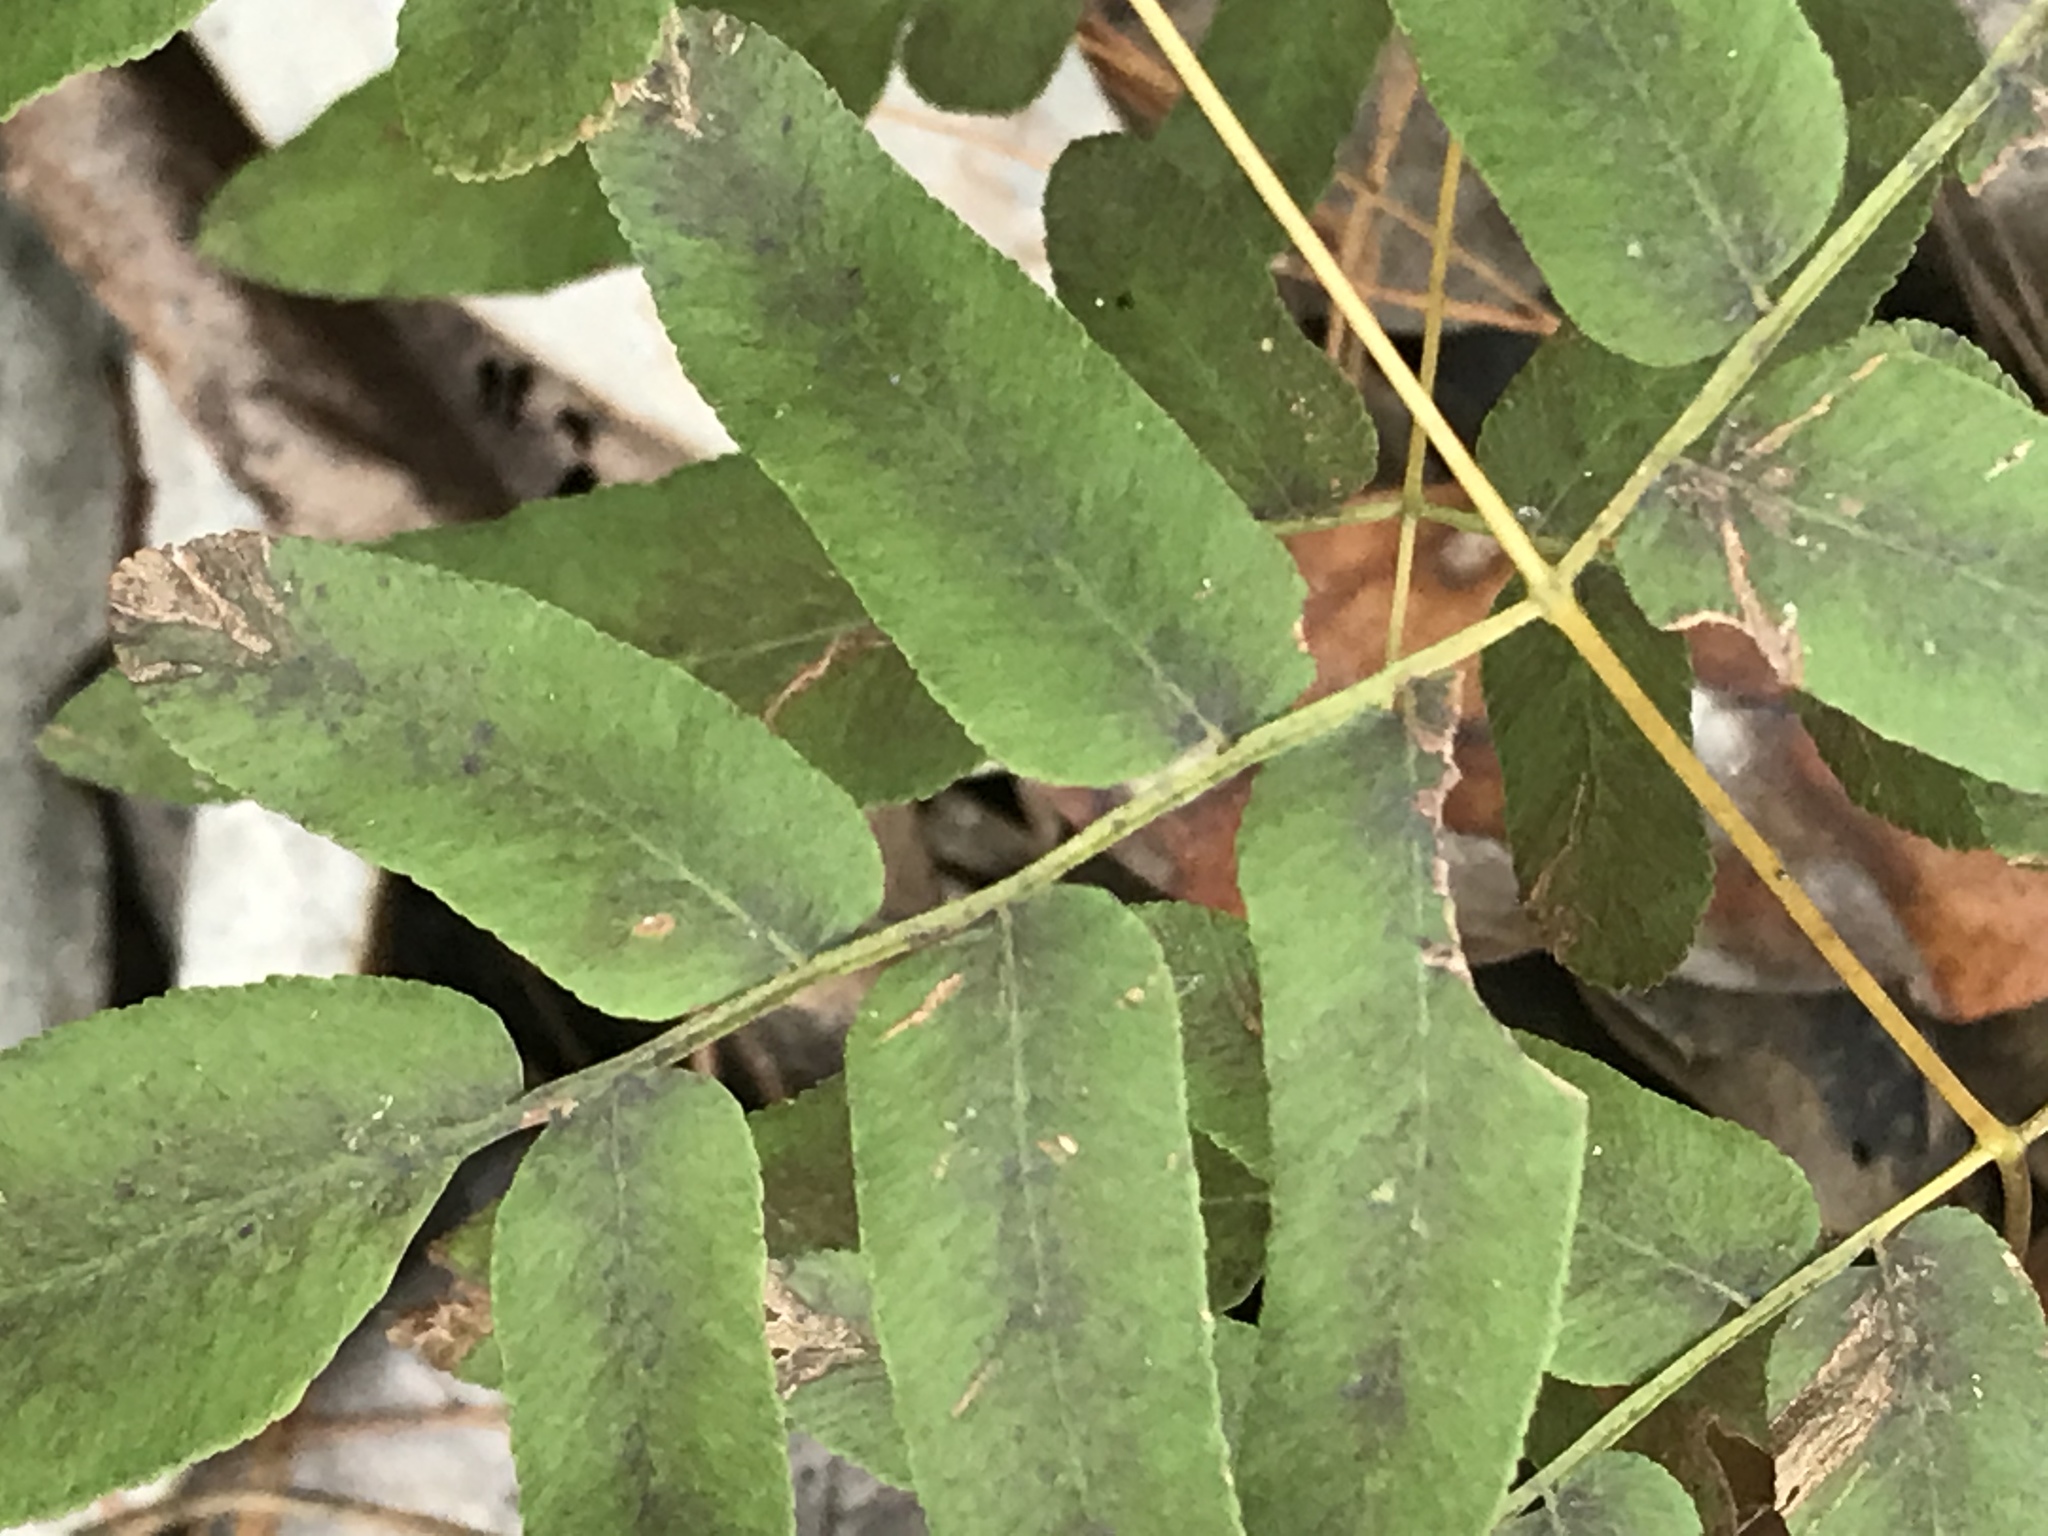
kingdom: Plantae
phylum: Tracheophyta
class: Polypodiopsida
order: Osmundales
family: Osmundaceae
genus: Osmunda
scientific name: Osmunda spectabilis
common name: American royal fern
